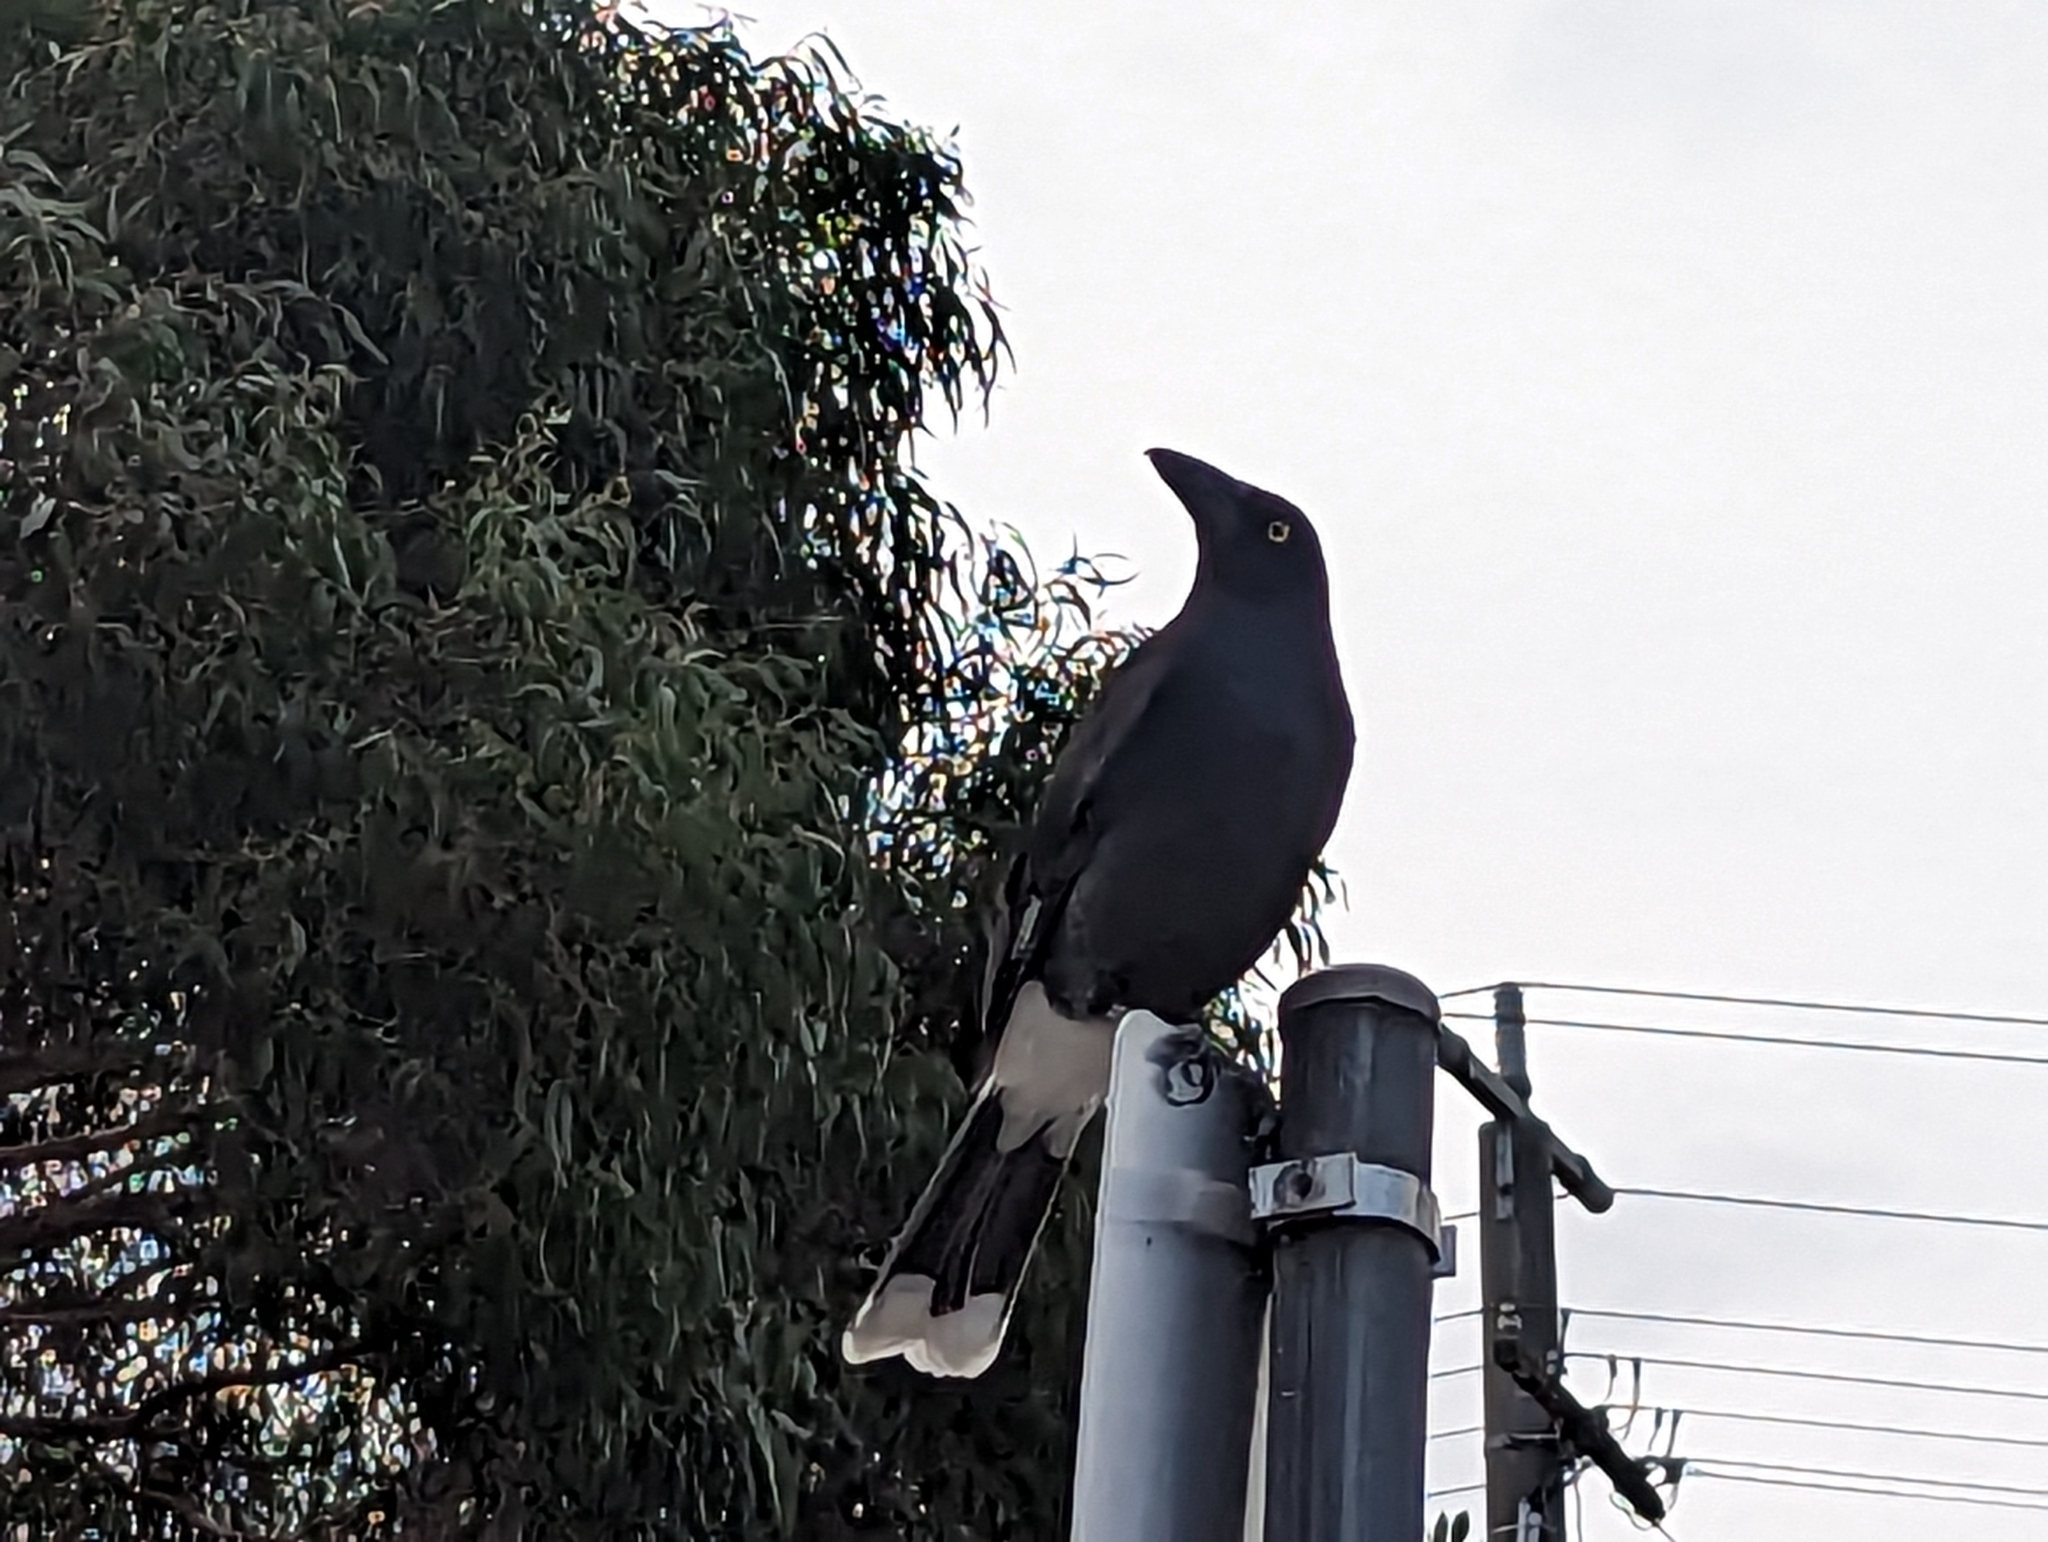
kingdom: Animalia
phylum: Chordata
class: Aves
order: Passeriformes
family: Cracticidae
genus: Strepera
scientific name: Strepera graculina
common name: Pied currawong
